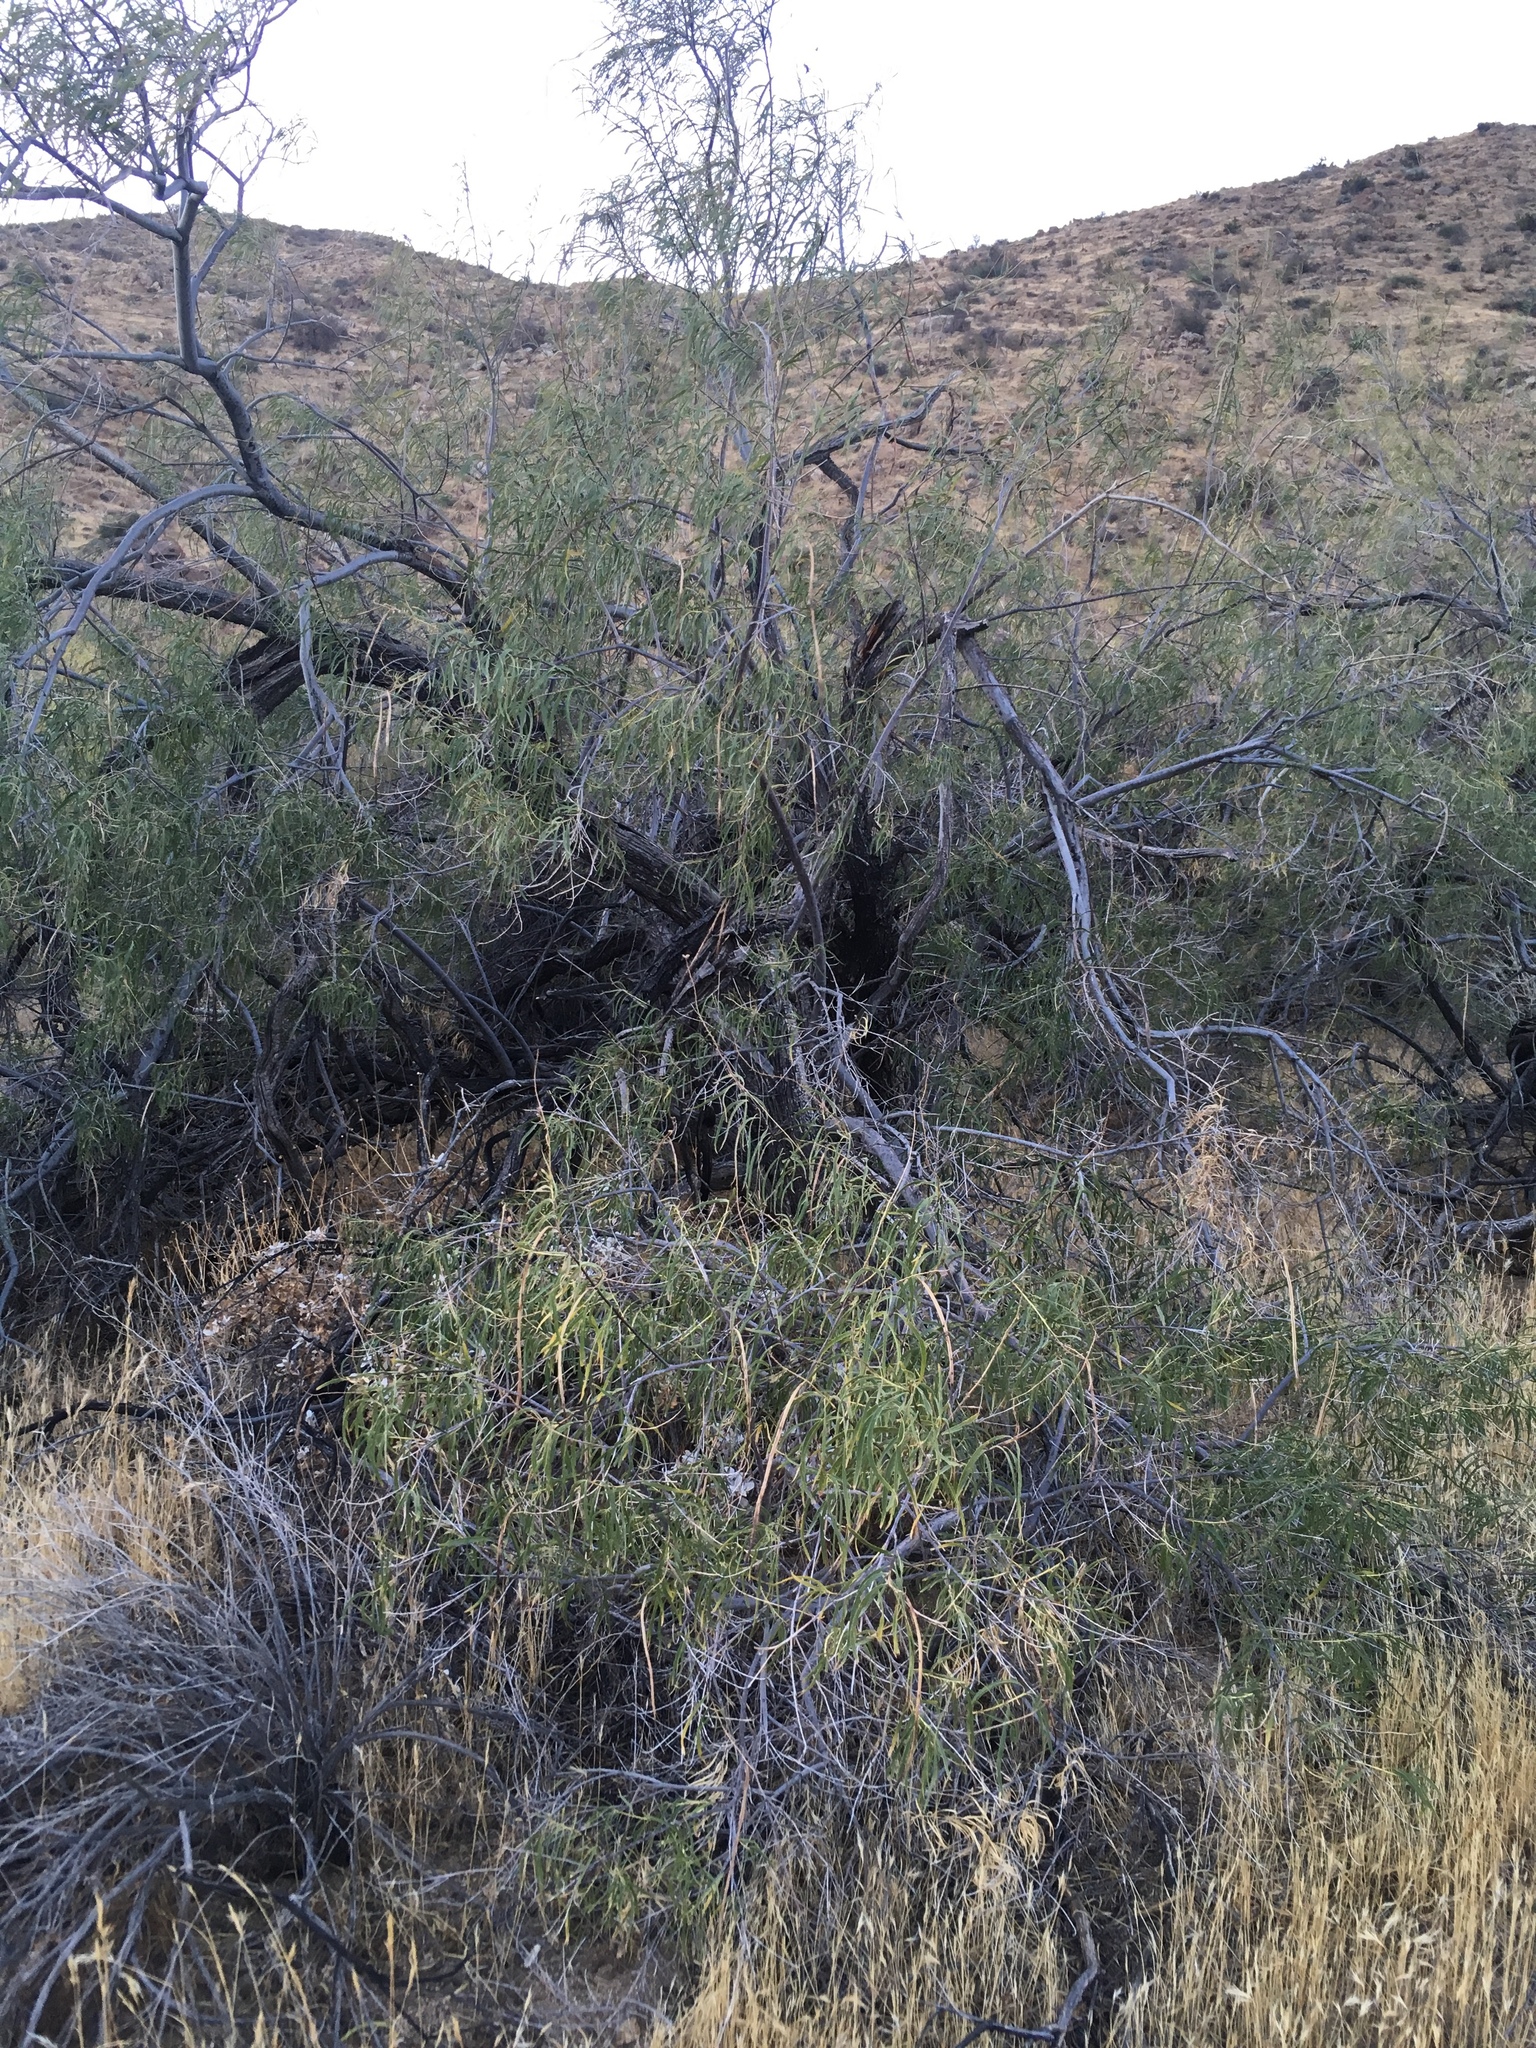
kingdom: Plantae
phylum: Tracheophyta
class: Magnoliopsida
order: Lamiales
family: Bignoniaceae
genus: Chilopsis
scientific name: Chilopsis linearis
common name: Desert-willow
